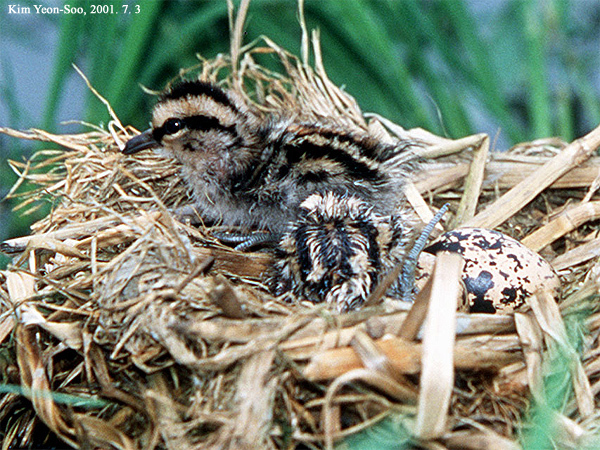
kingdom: Animalia
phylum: Chordata
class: Aves
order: Charadriiformes
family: Rostratulidae
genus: Rostratula
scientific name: Rostratula benghalensis
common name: Greater painted-snipe
